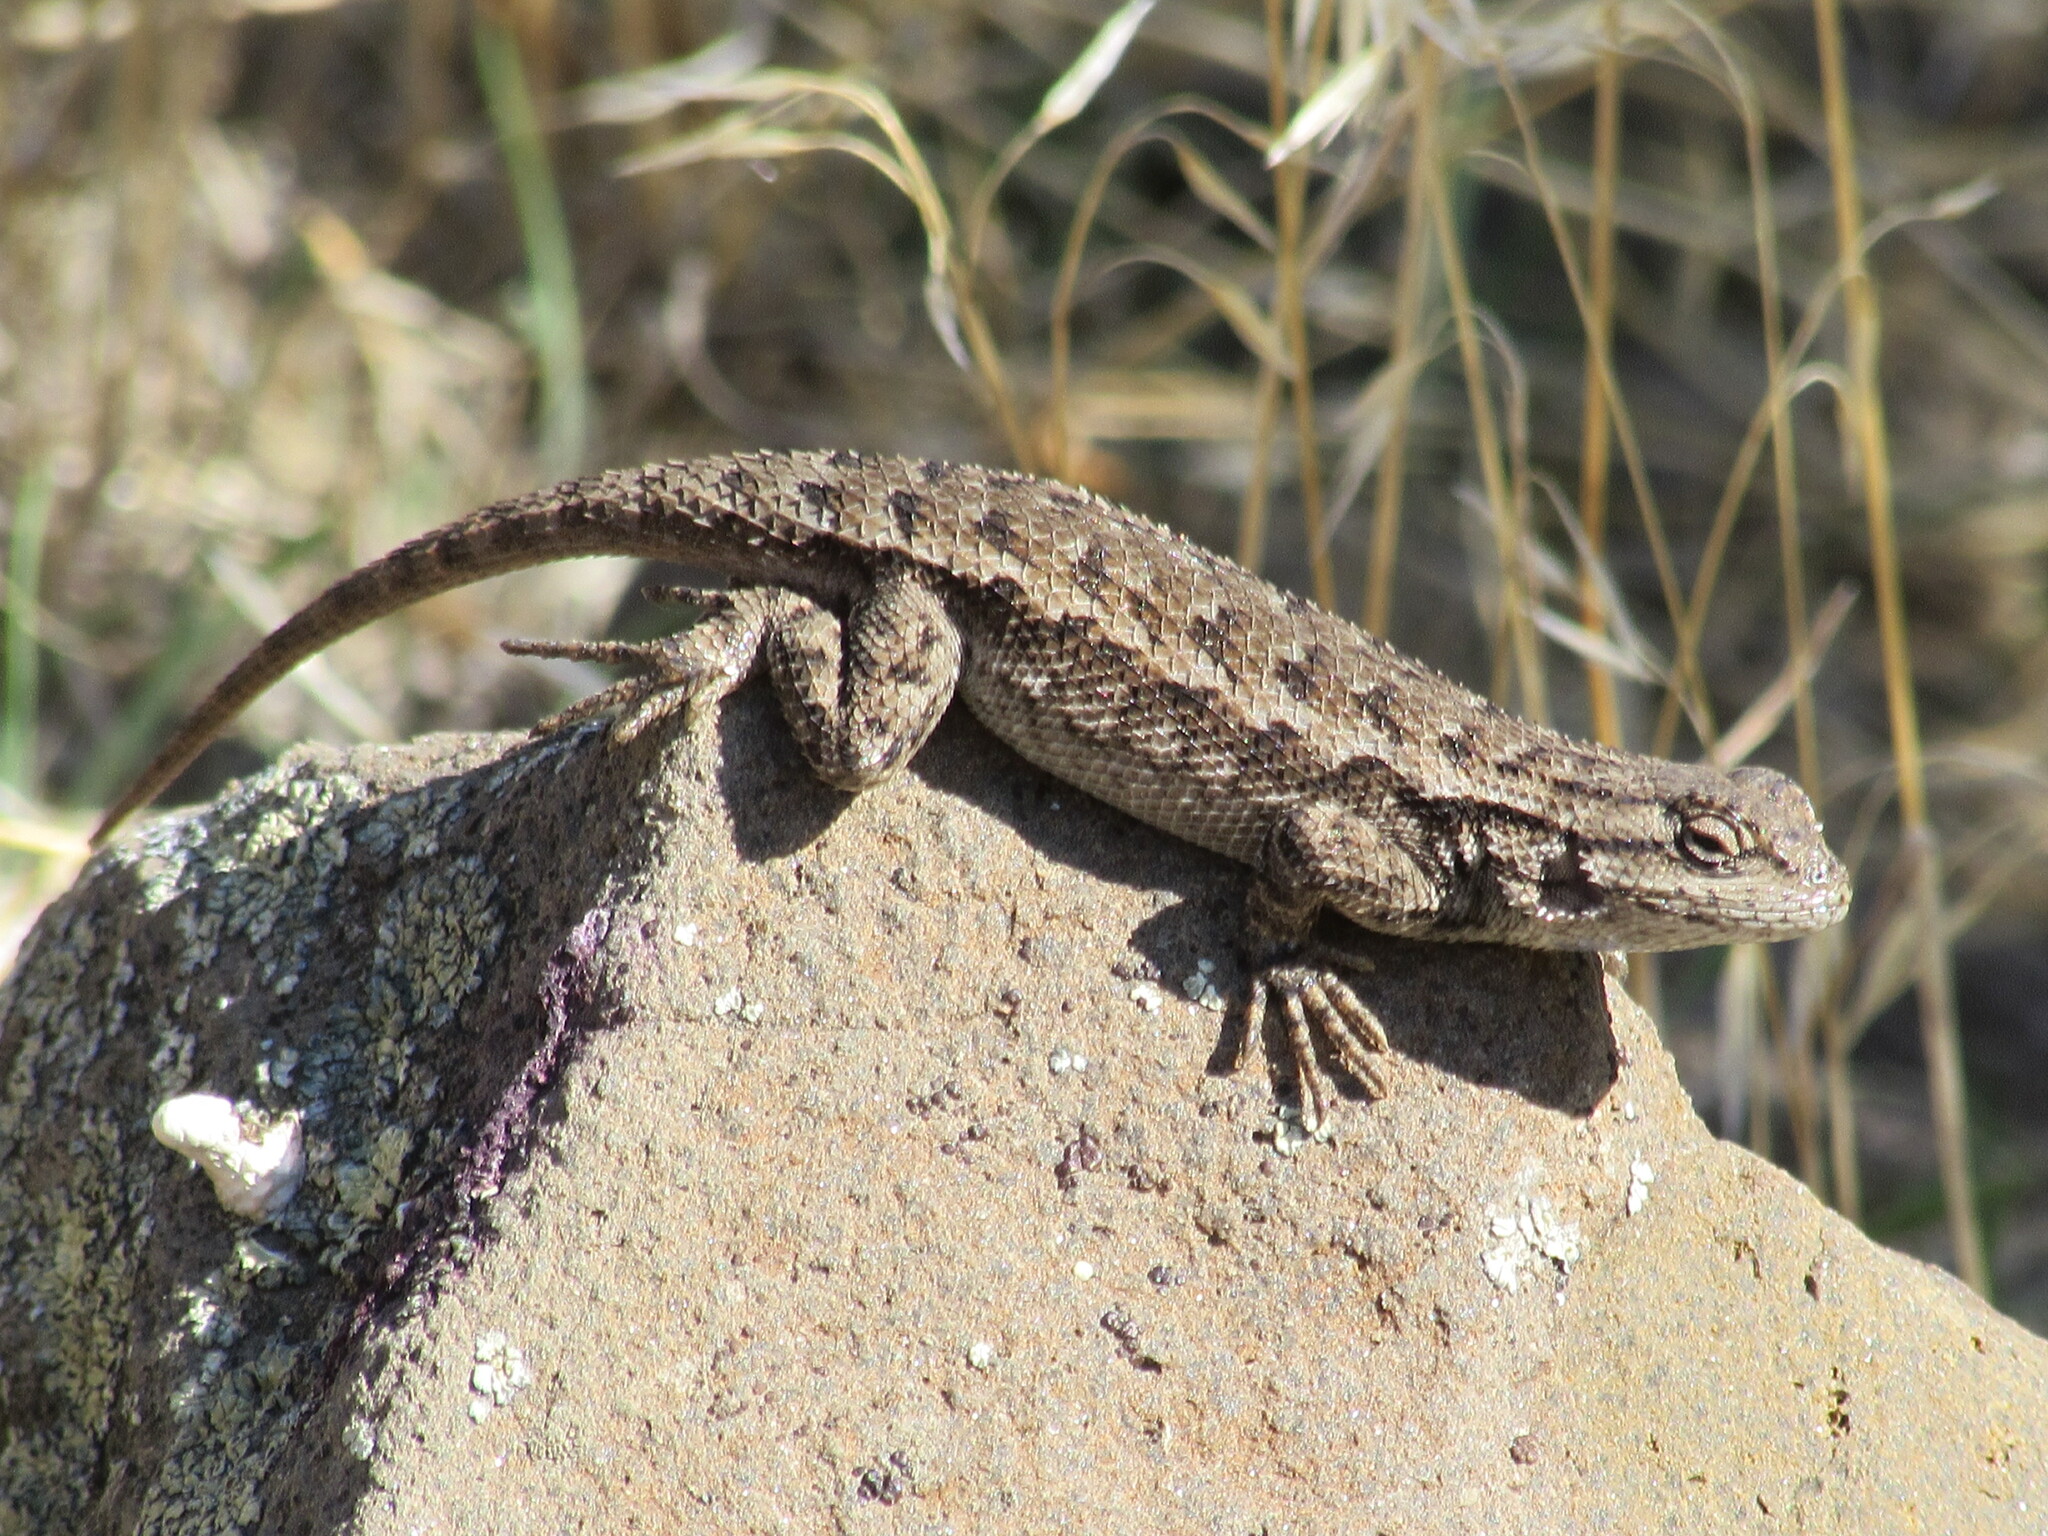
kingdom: Animalia
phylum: Chordata
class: Squamata
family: Phrynosomatidae
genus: Sceloporus
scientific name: Sceloporus occidentalis
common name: Western fence lizard
